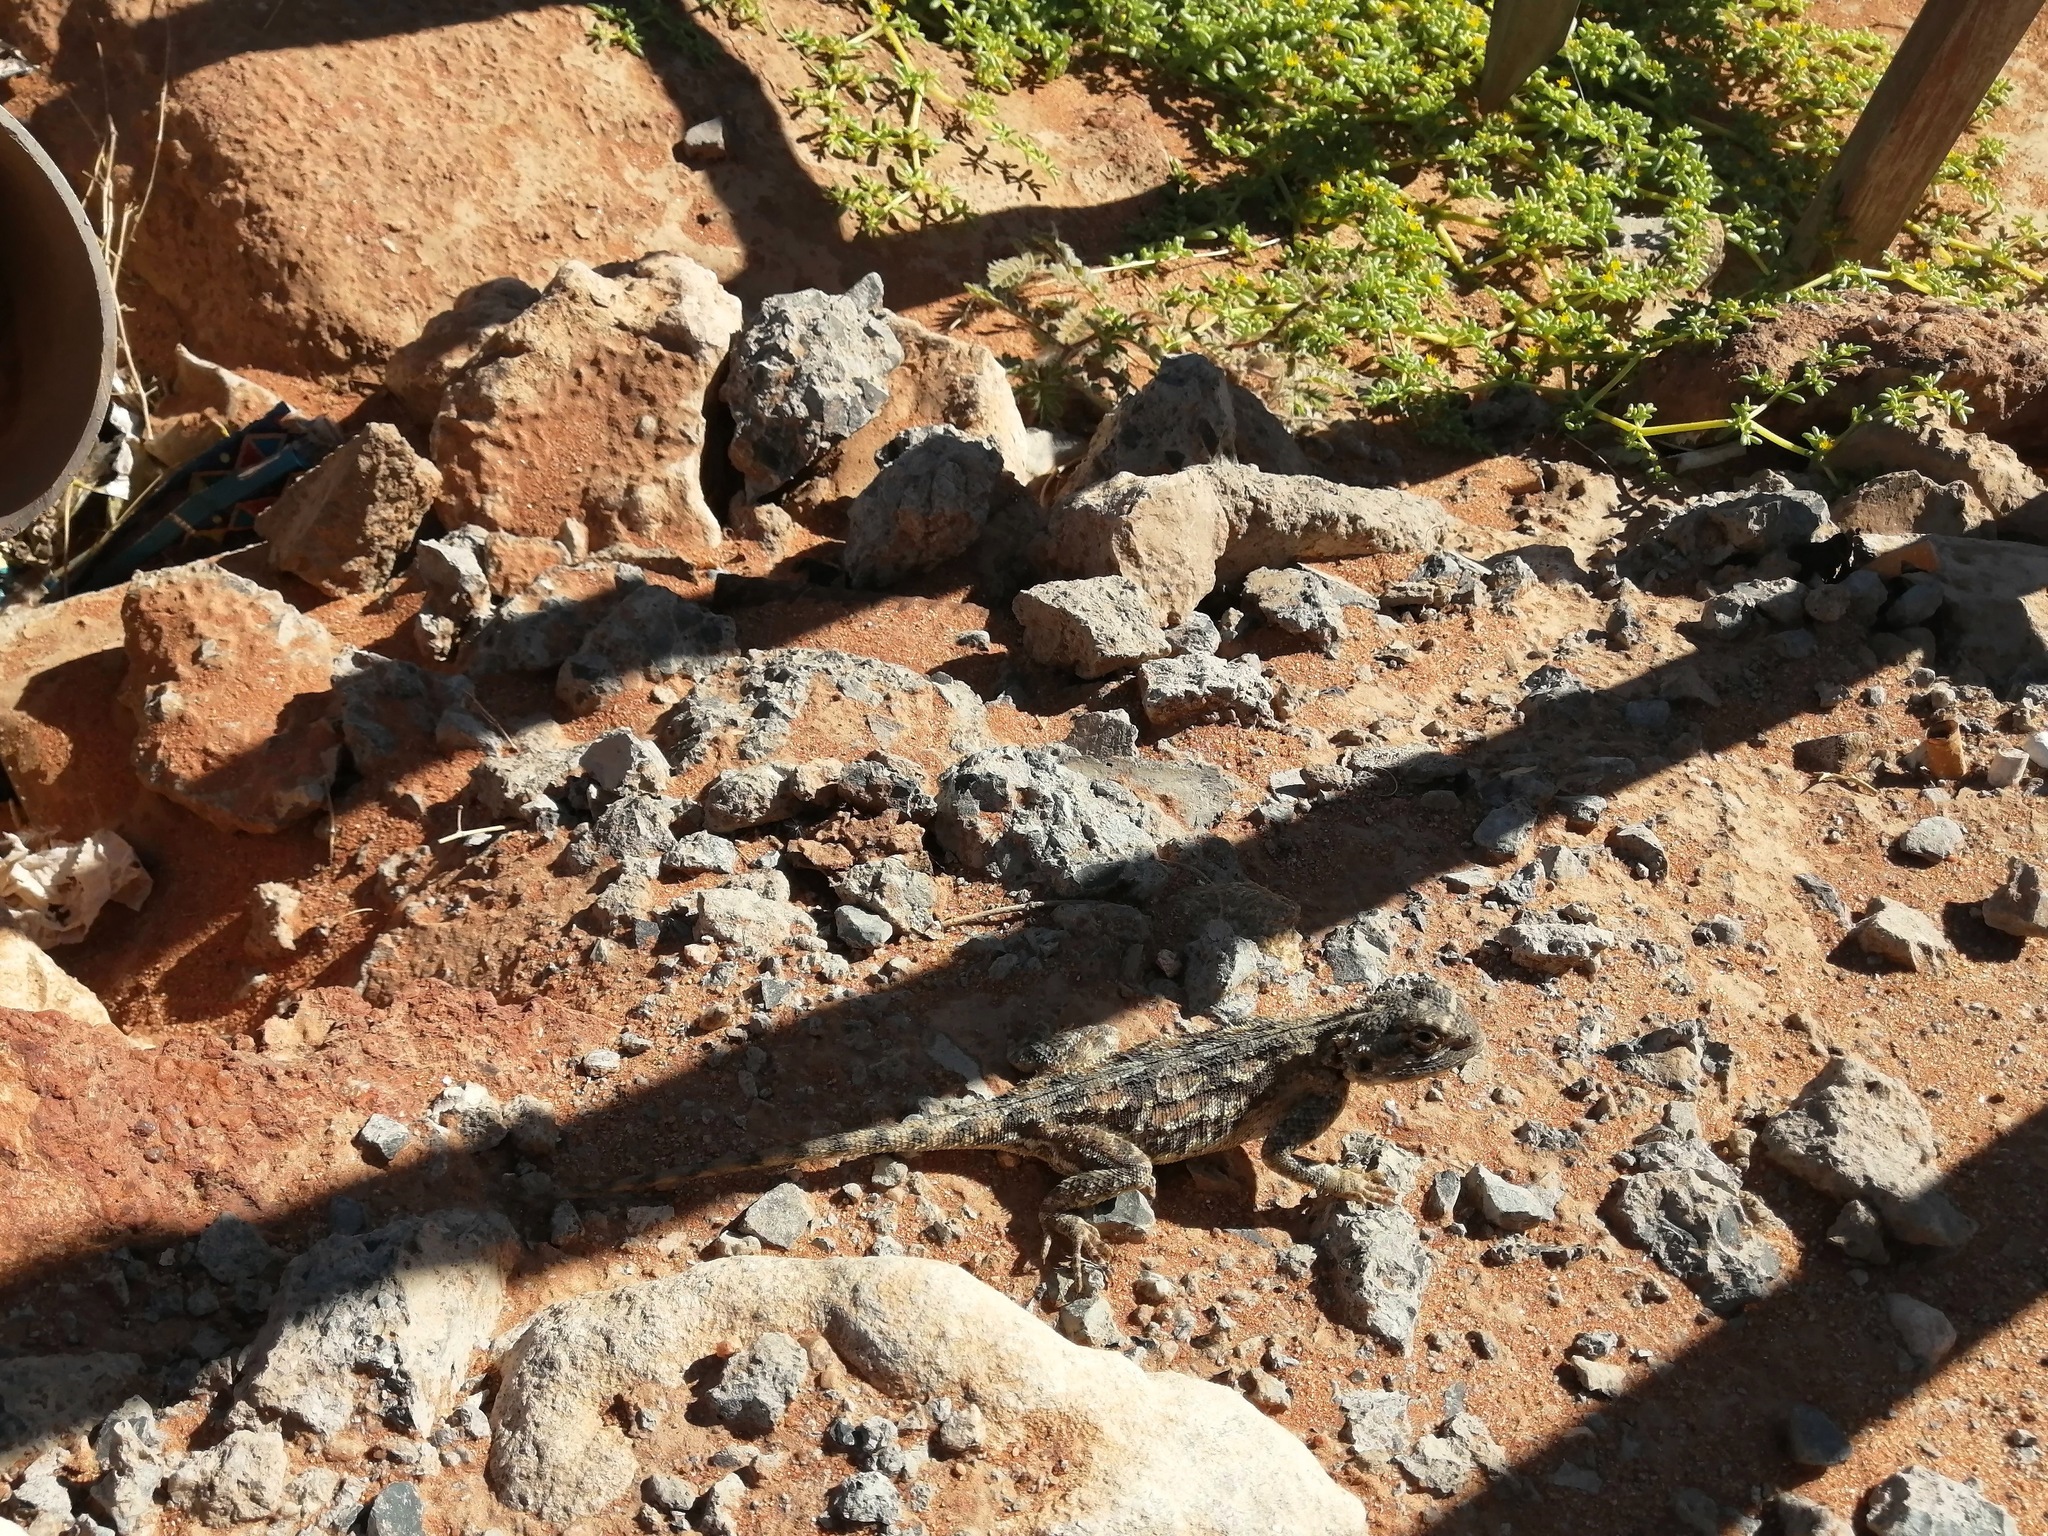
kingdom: Animalia
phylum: Chordata
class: Squamata
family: Agamidae
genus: Agama
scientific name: Agama aculeata
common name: Common ground agama
